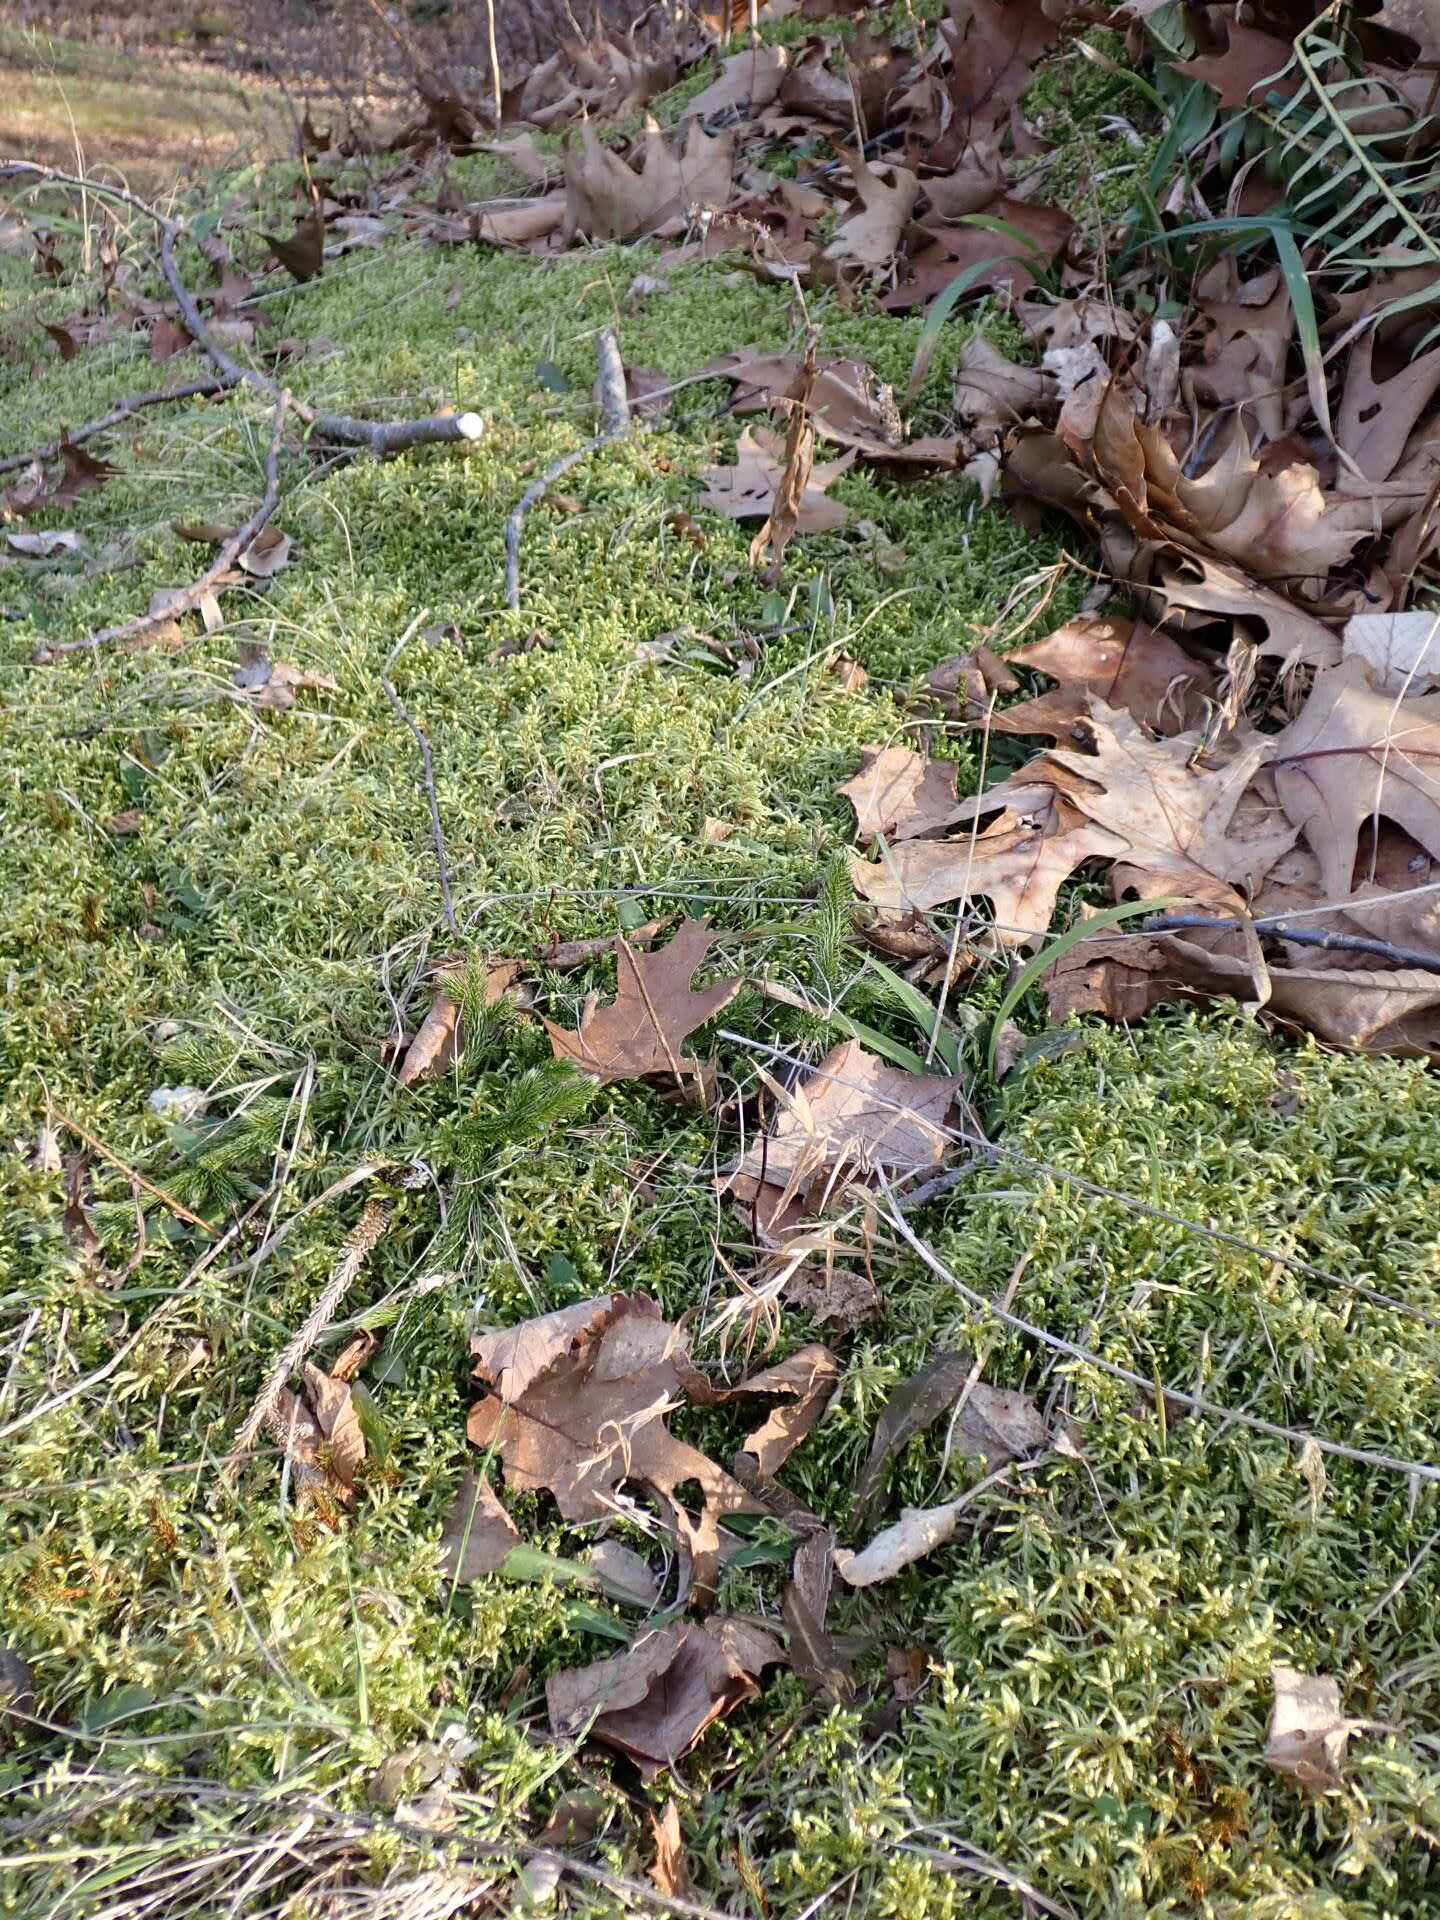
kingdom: Plantae
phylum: Tracheophyta
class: Lycopodiopsida
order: Lycopodiales
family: Lycopodiaceae
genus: Lycopodium
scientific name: Lycopodium clavatum
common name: Stag's-horn clubmoss
